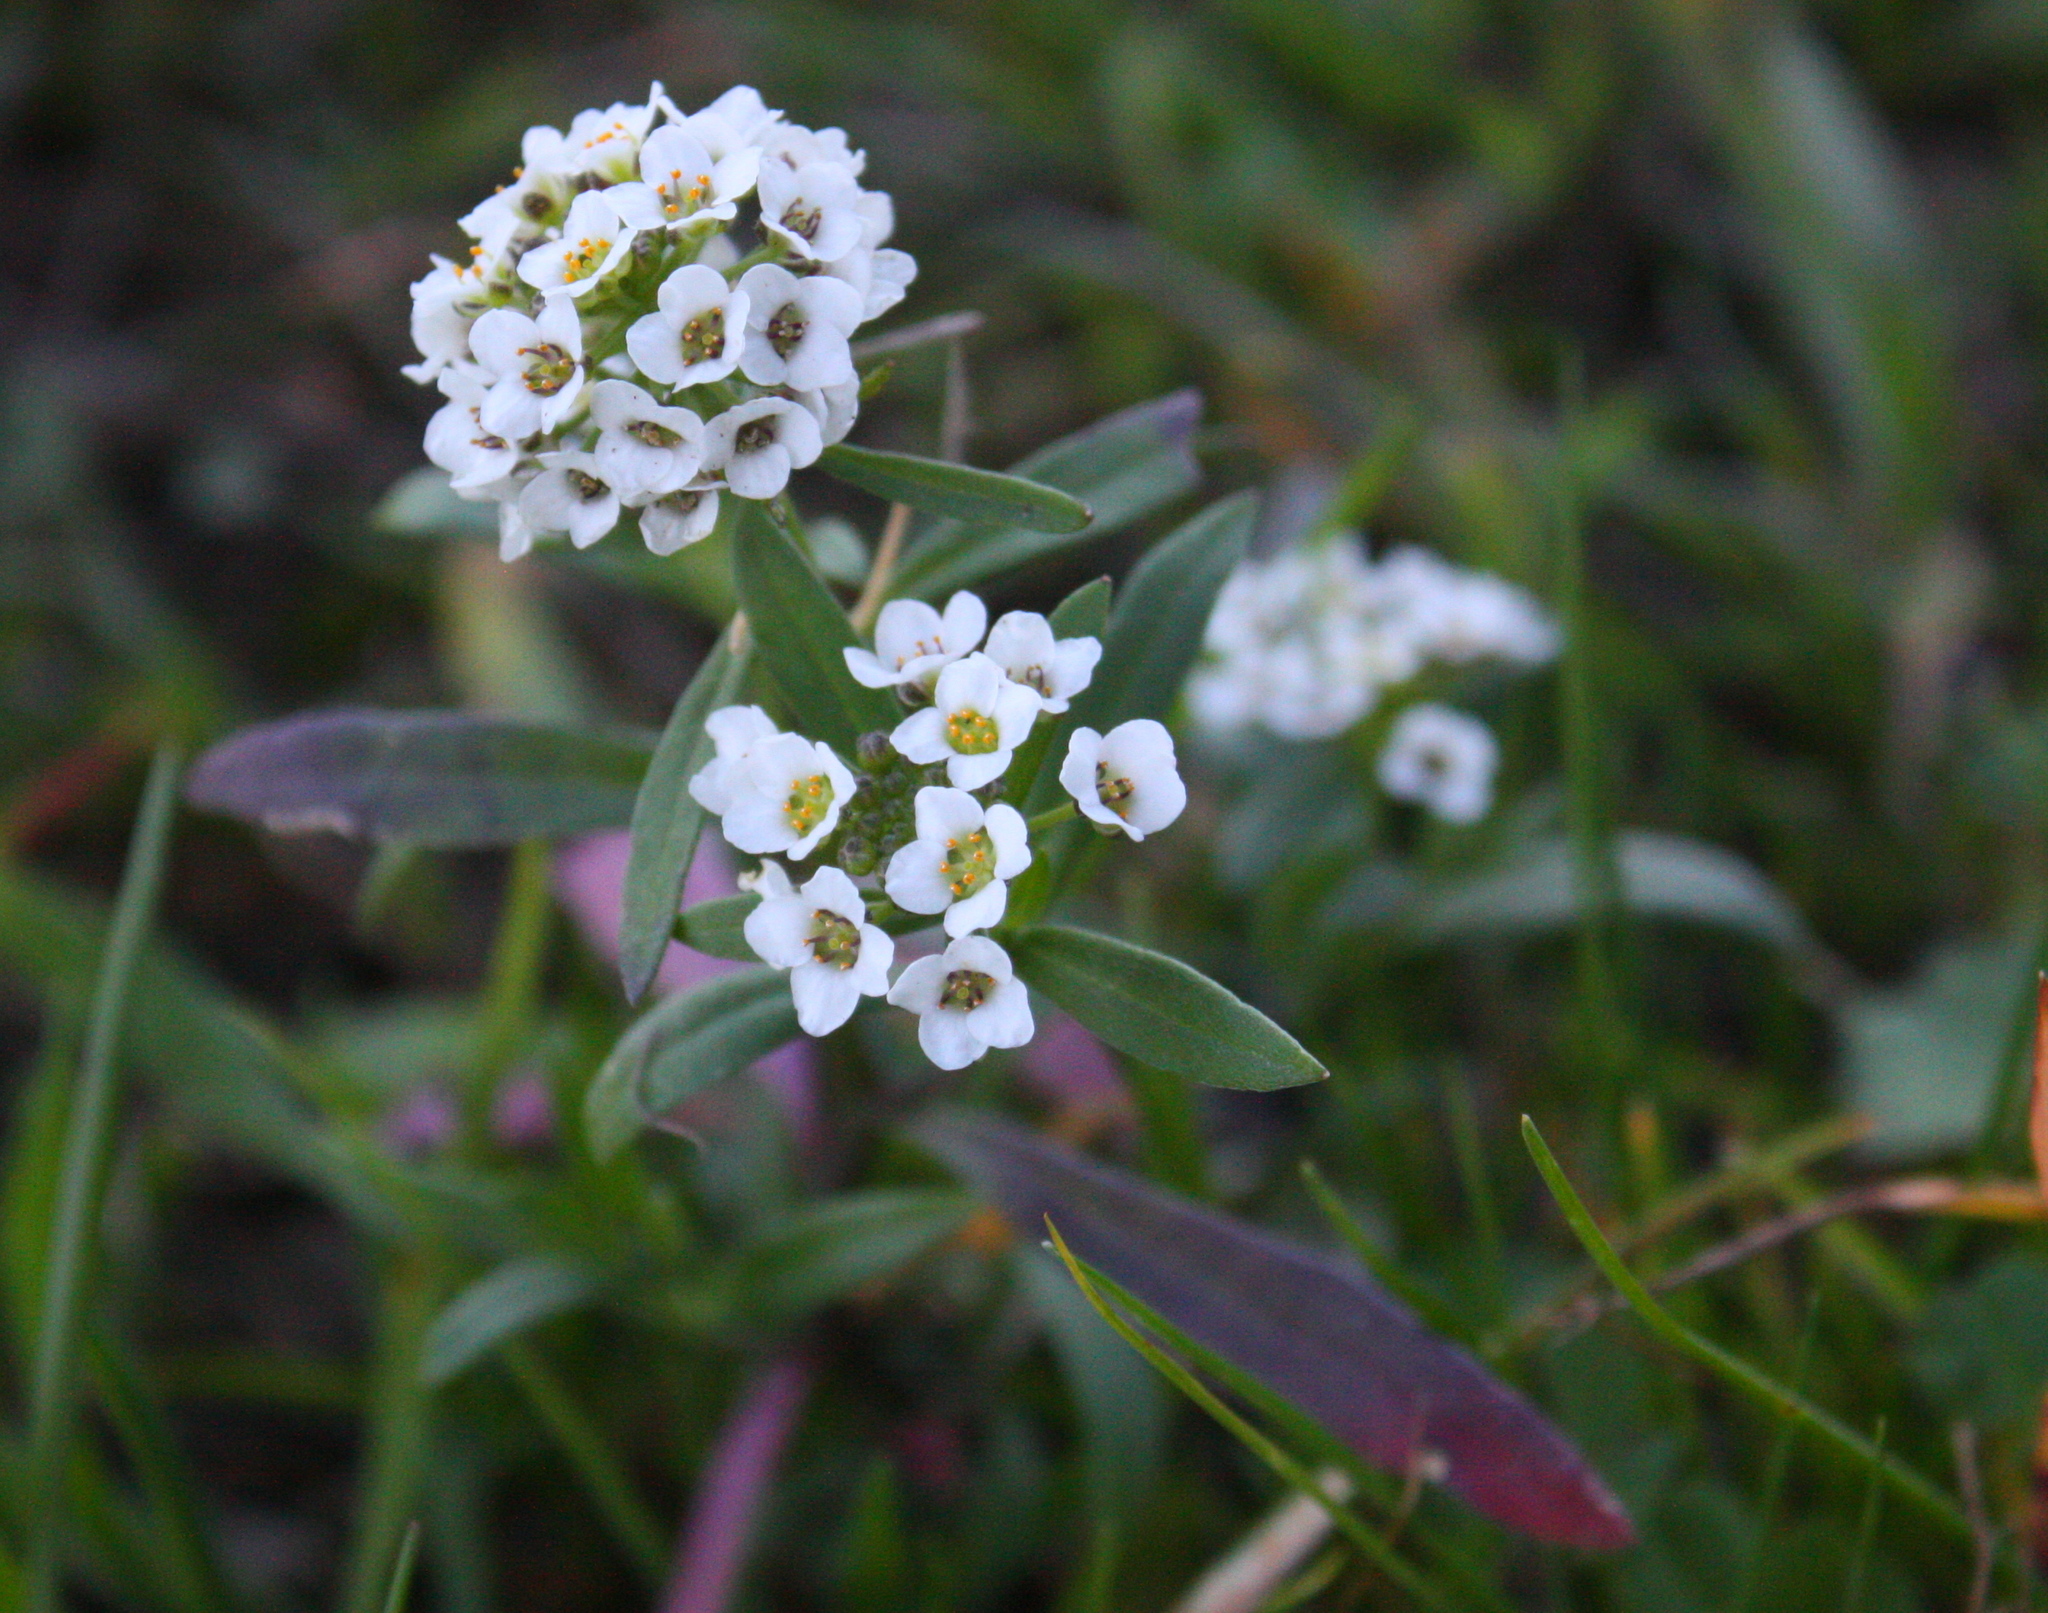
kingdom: Plantae
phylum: Tracheophyta
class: Magnoliopsida
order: Brassicales
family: Brassicaceae
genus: Lobularia
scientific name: Lobularia maritima
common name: Sweet alison
